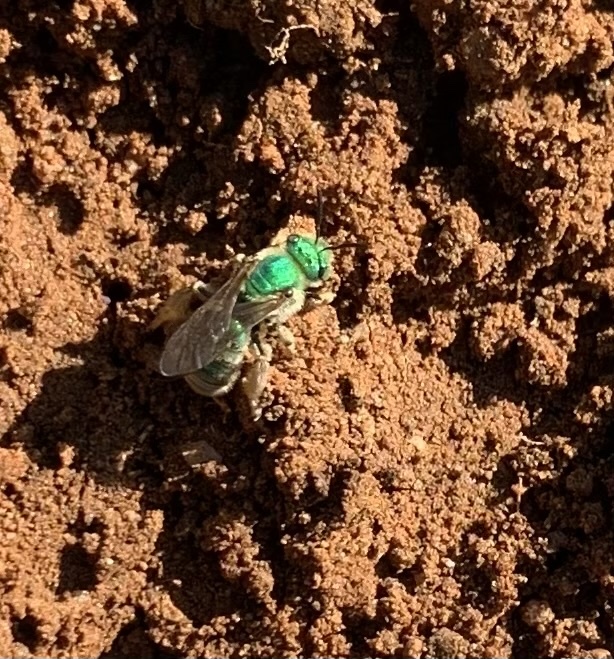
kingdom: Animalia
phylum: Arthropoda
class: Insecta
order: Hymenoptera
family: Halictidae
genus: Agapostemon
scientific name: Agapostemon texanus
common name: Texas striped sweat bee
